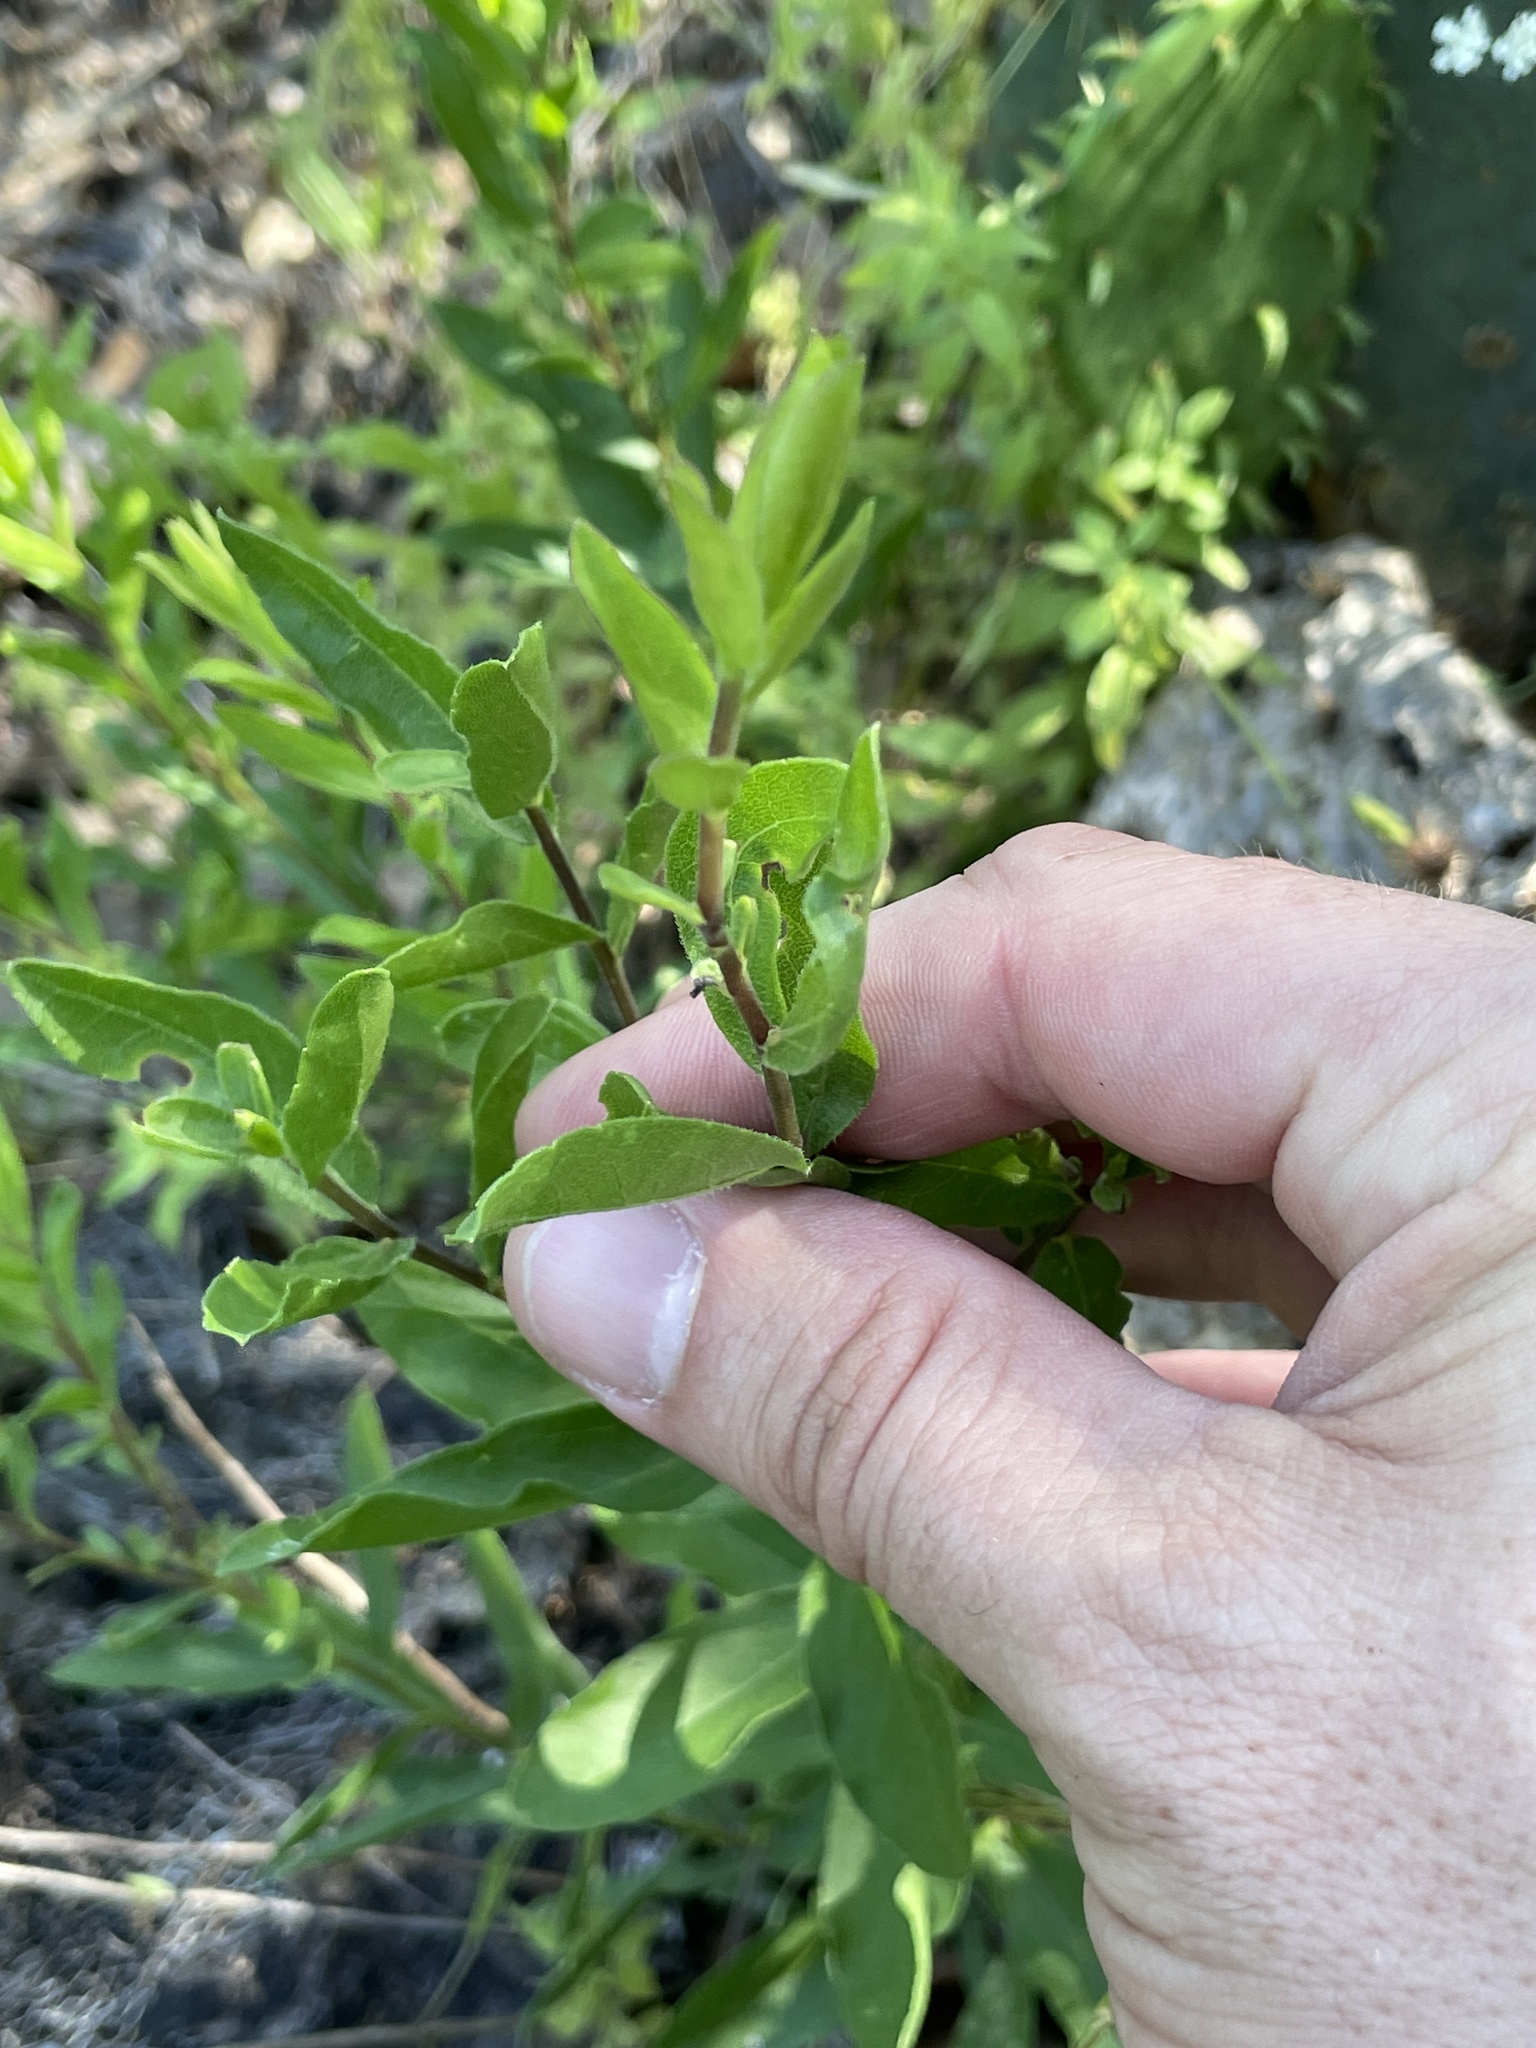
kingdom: Plantae
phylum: Tracheophyta
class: Magnoliopsida
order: Asterales
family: Asteraceae
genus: Solidago
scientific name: Solidago radula
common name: Western rough goldenrod
